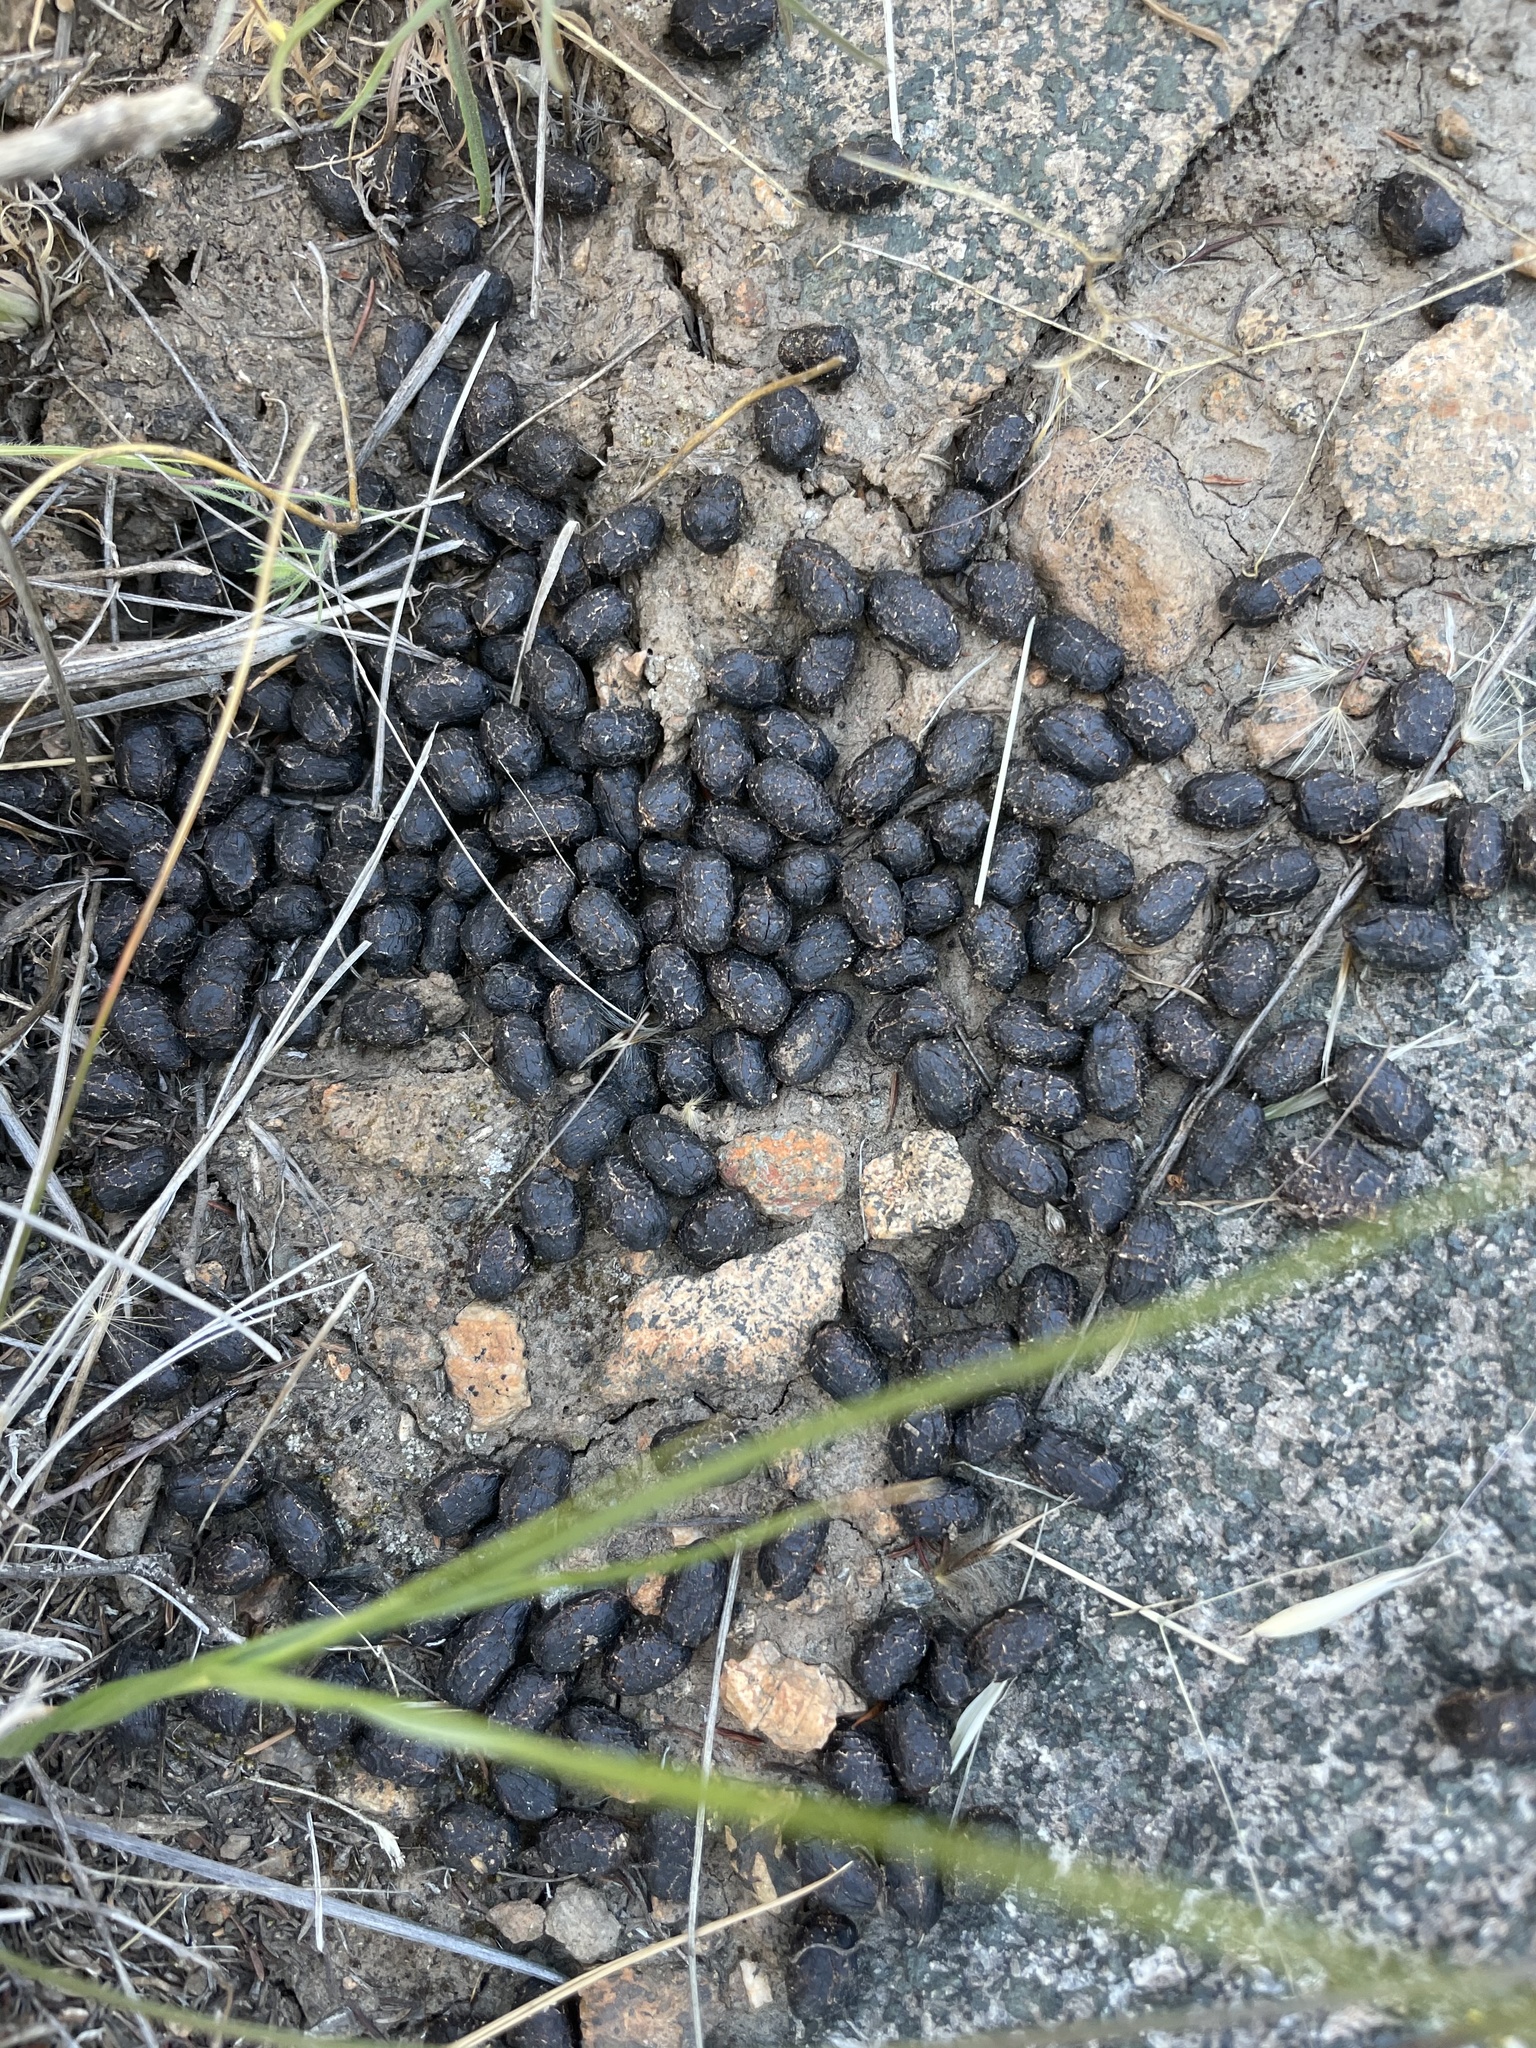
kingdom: Animalia
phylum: Chordata
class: Mammalia
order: Artiodactyla
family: Cervidae
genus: Odocoileus
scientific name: Odocoileus hemionus
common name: Mule deer
